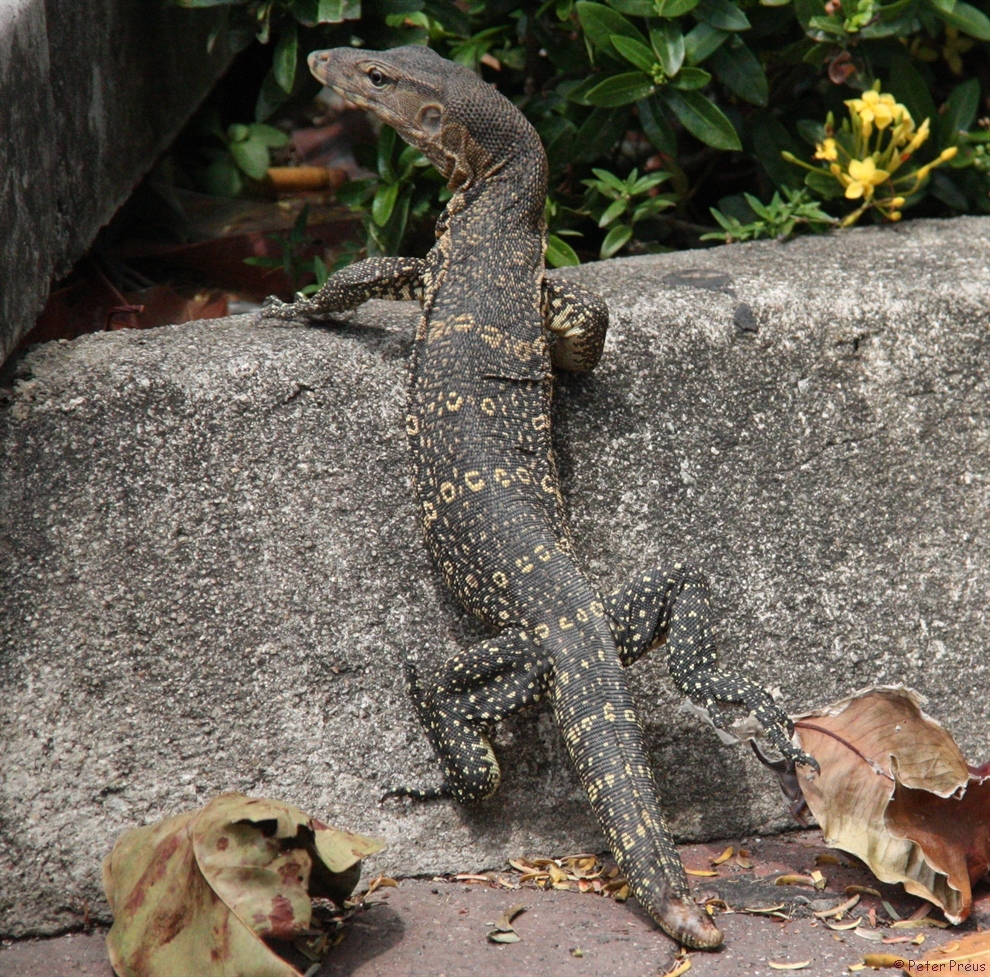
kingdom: Animalia
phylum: Chordata
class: Squamata
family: Varanidae
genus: Varanus
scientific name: Varanus salvator
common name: Common water monitor
